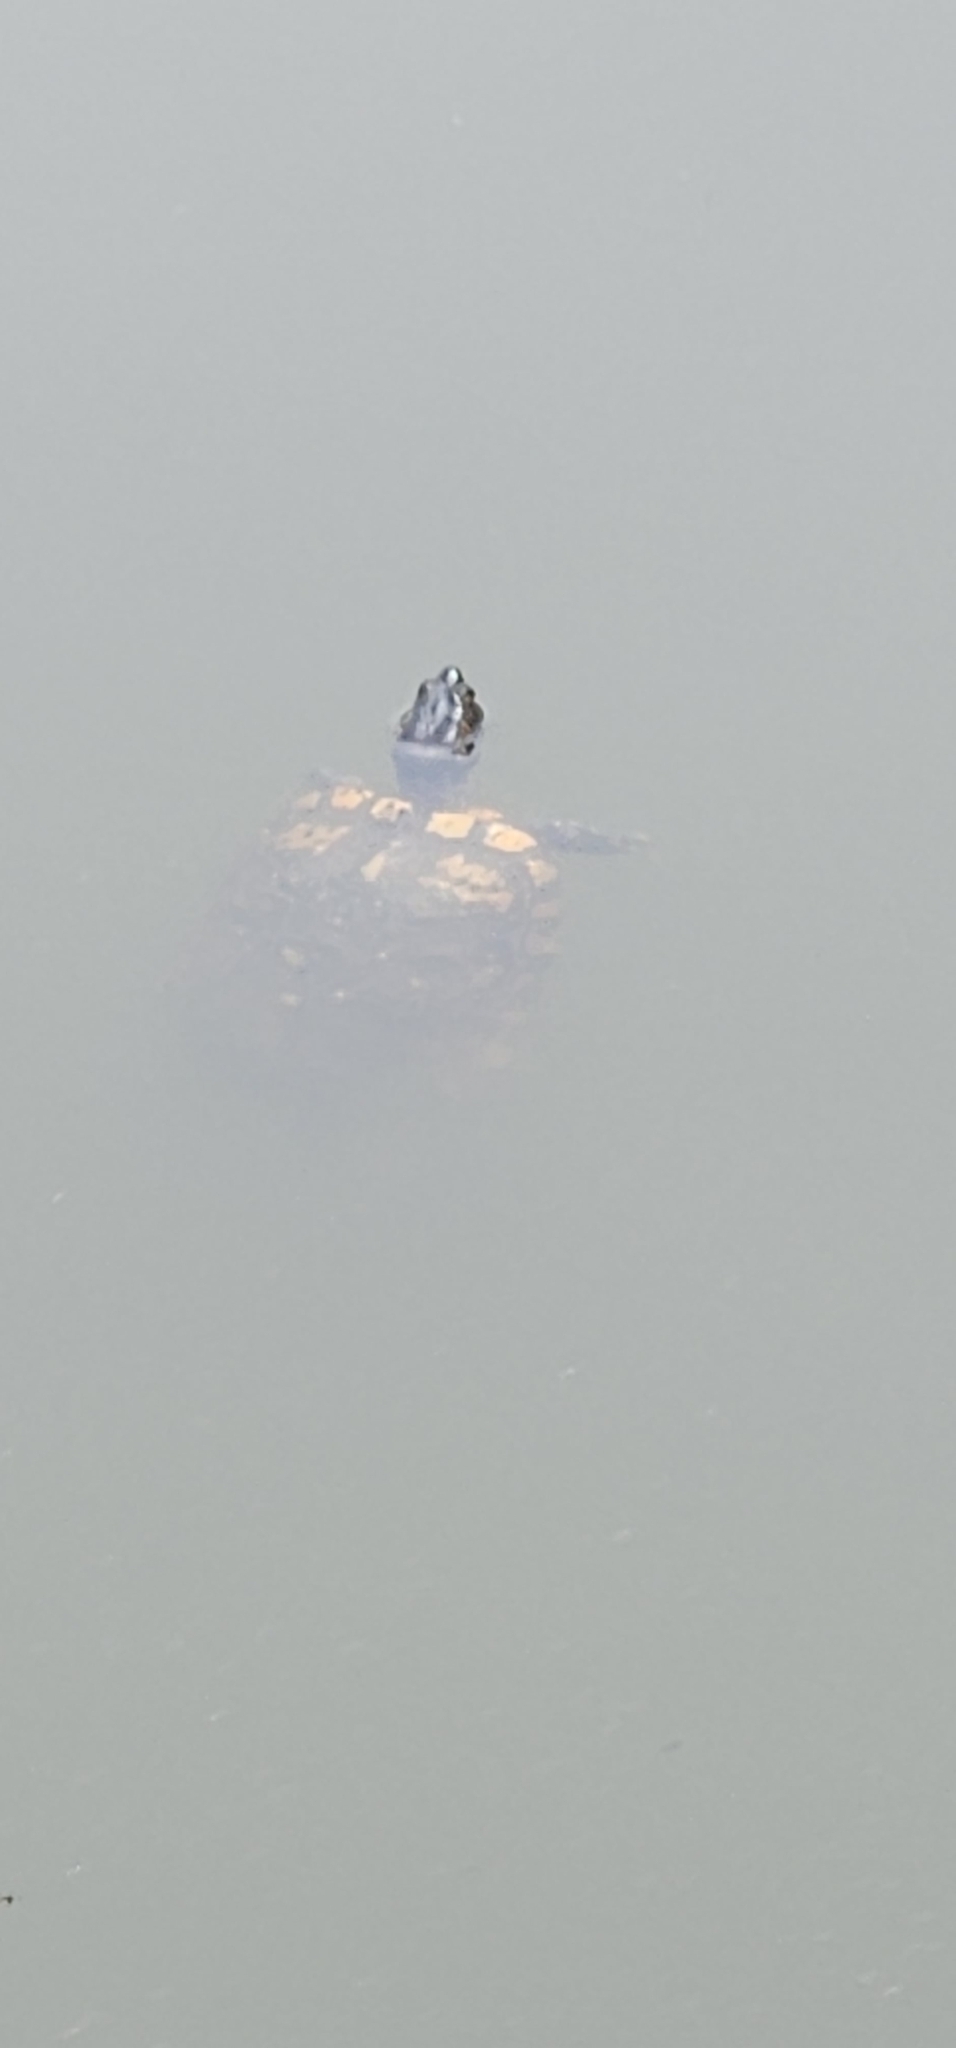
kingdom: Animalia
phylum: Chordata
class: Testudines
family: Emydidae
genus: Trachemys
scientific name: Trachemys scripta
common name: Slider
